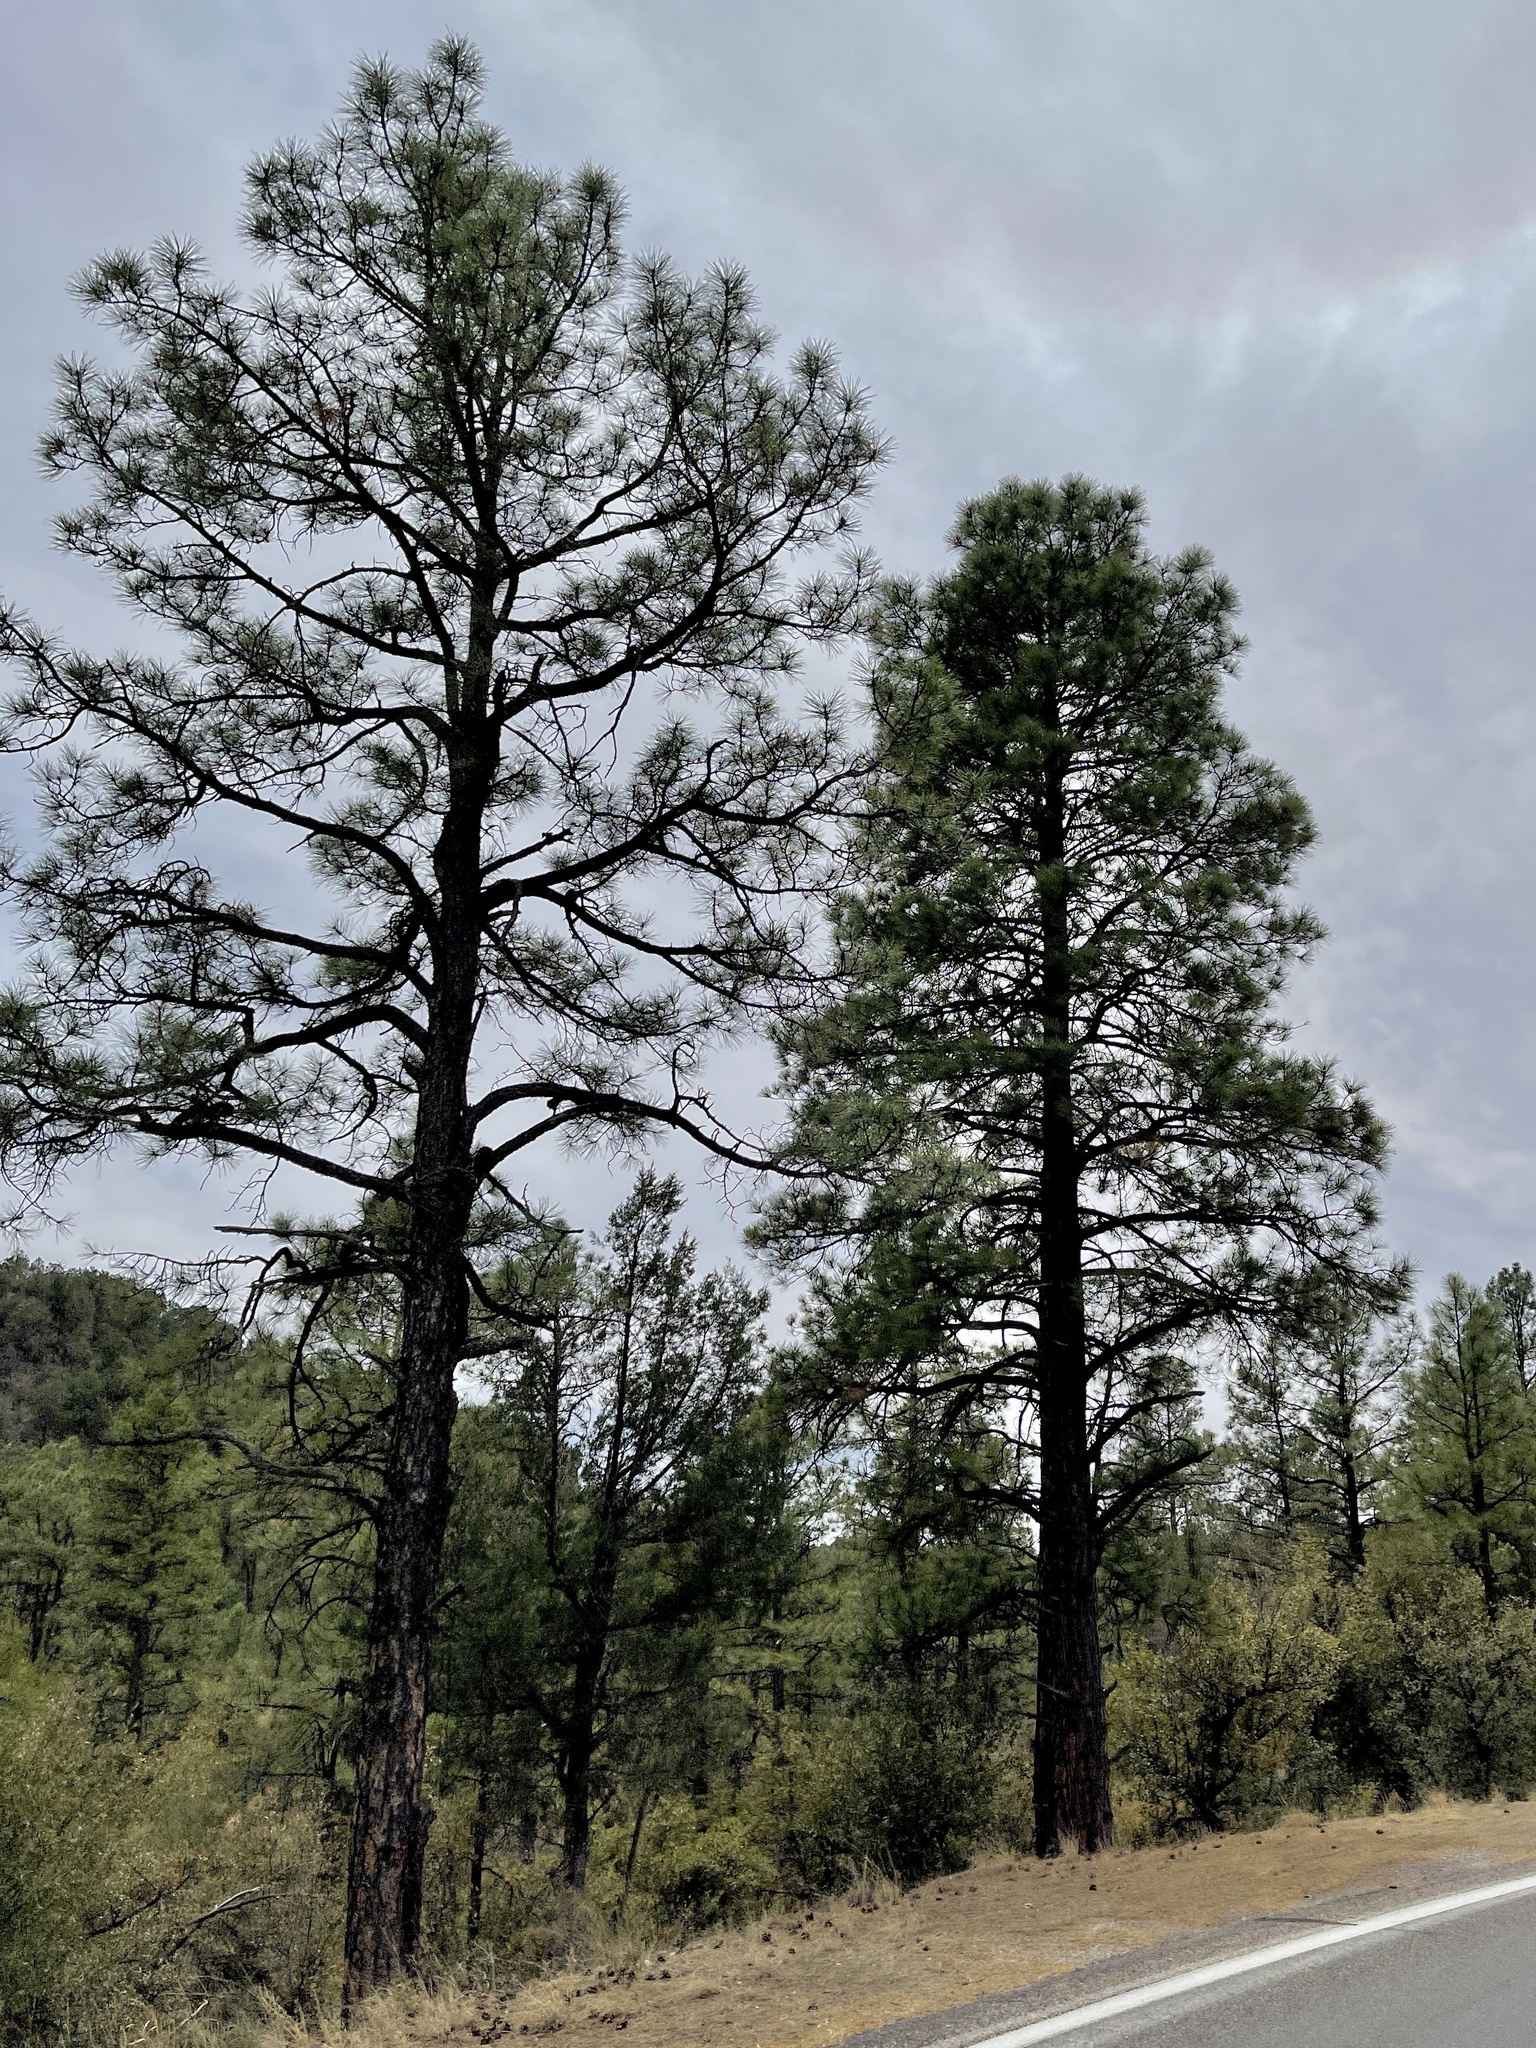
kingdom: Plantae
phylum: Tracheophyta
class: Pinopsida
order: Pinales
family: Pinaceae
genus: Pinus
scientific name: Pinus ponderosa
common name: Western yellow-pine
